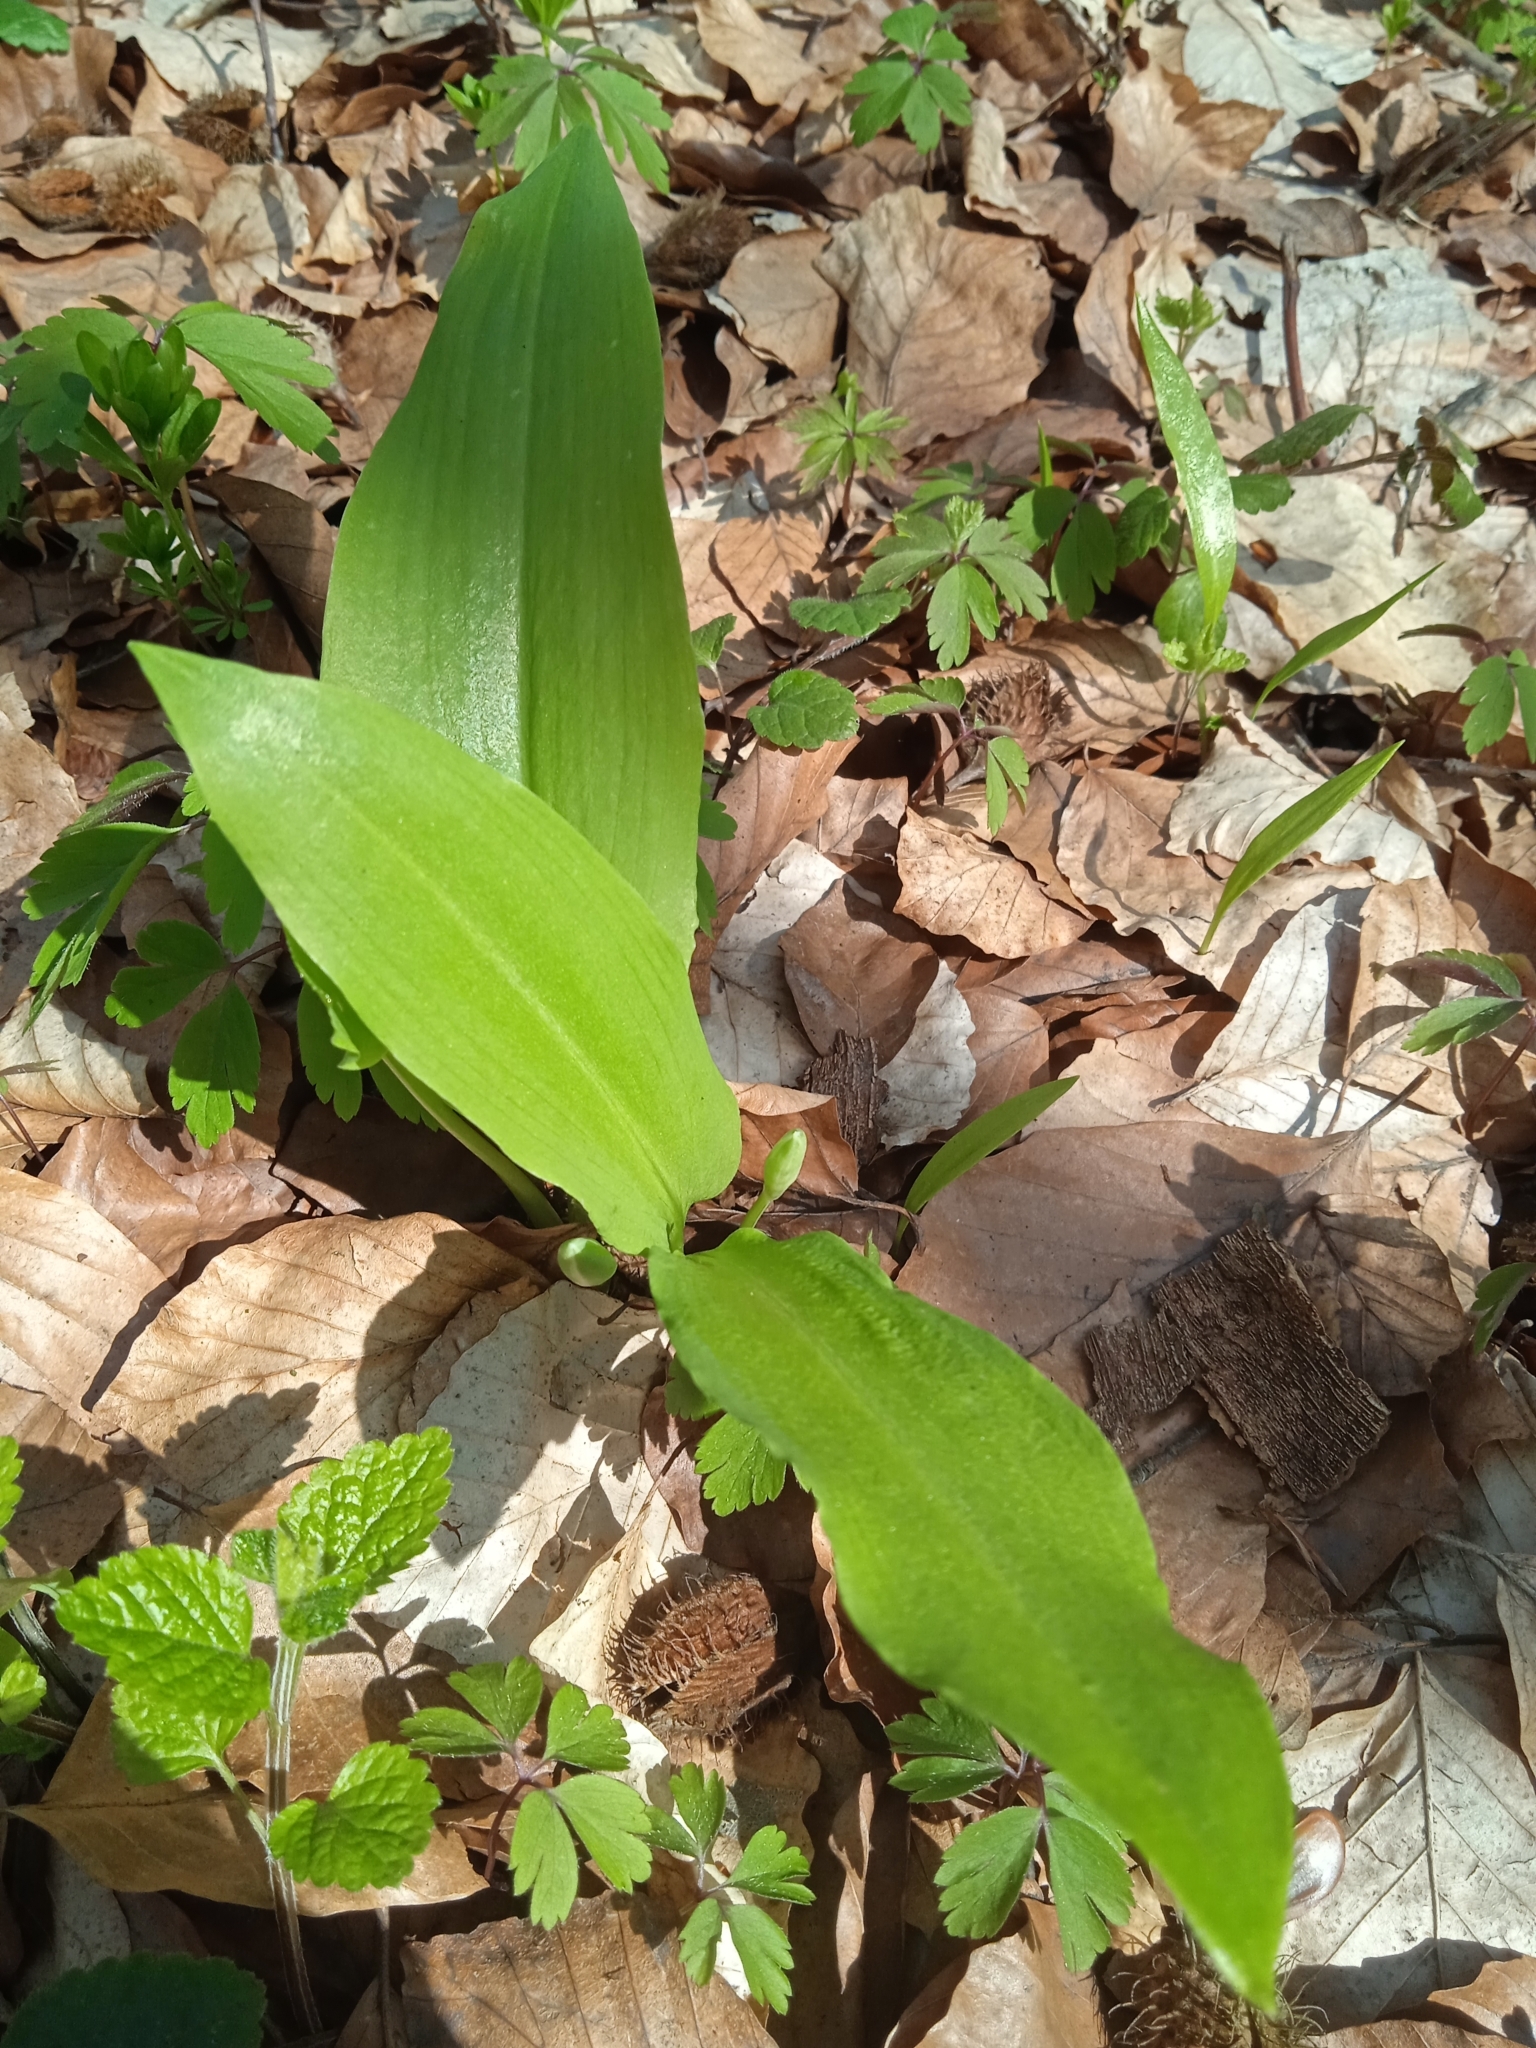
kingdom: Plantae
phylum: Tracheophyta
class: Liliopsida
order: Asparagales
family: Amaryllidaceae
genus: Allium
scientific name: Allium ursinum
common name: Ramsons
